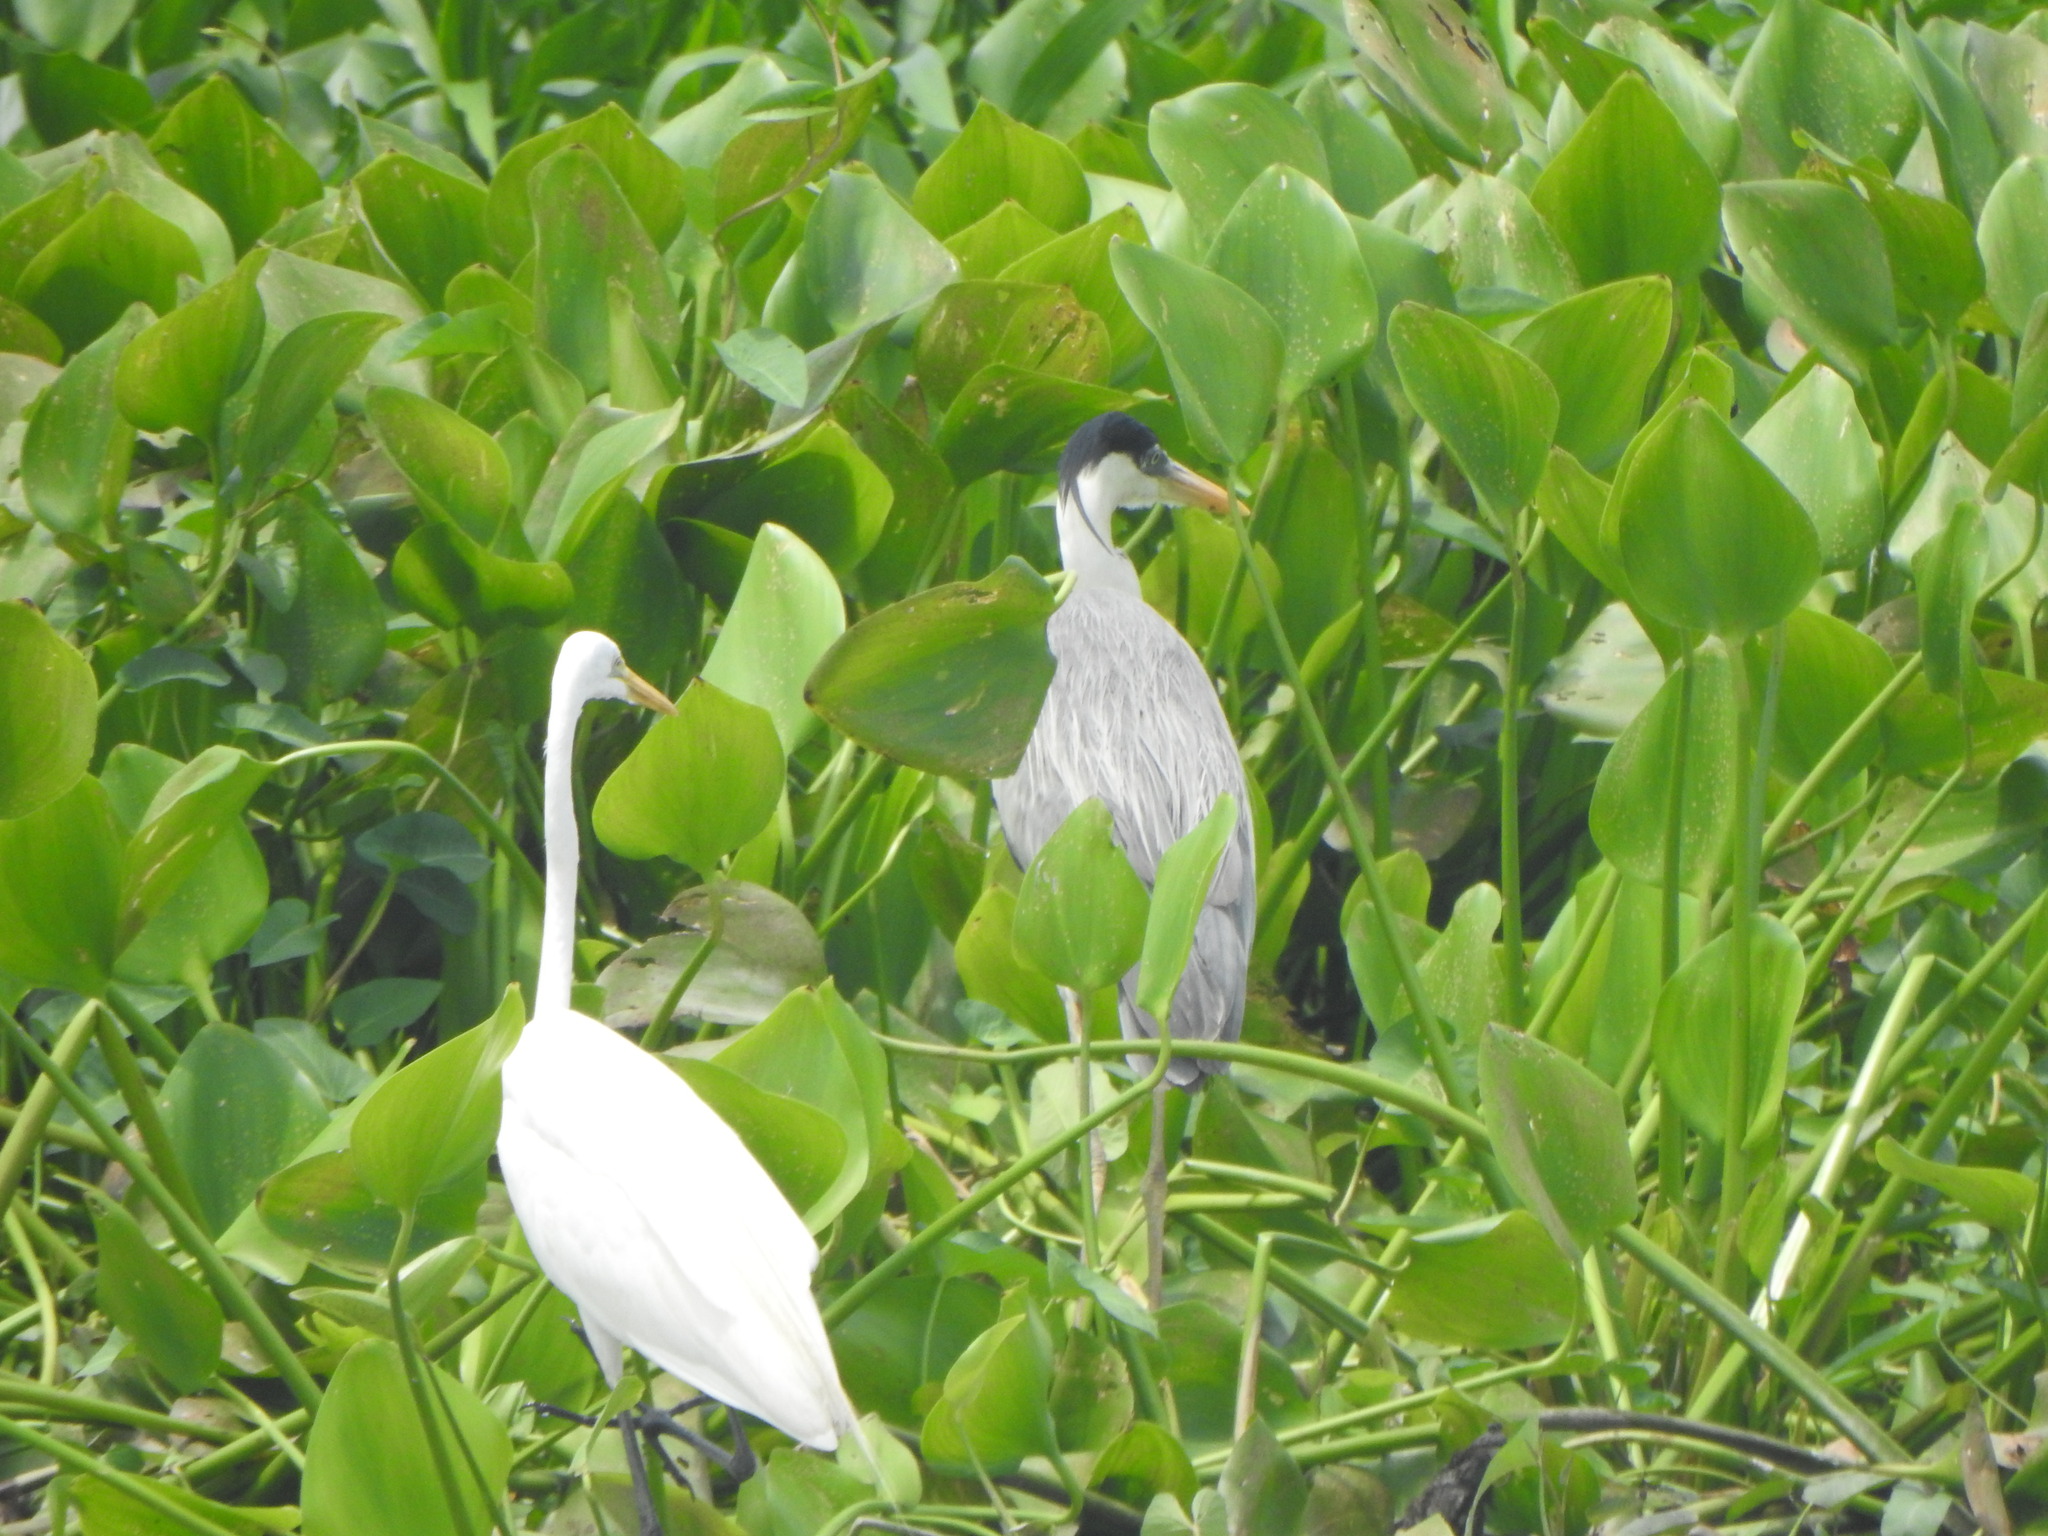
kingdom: Animalia
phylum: Chordata
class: Aves
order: Pelecaniformes
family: Ardeidae
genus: Ardea
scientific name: Ardea cocoi
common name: Cocoi heron
